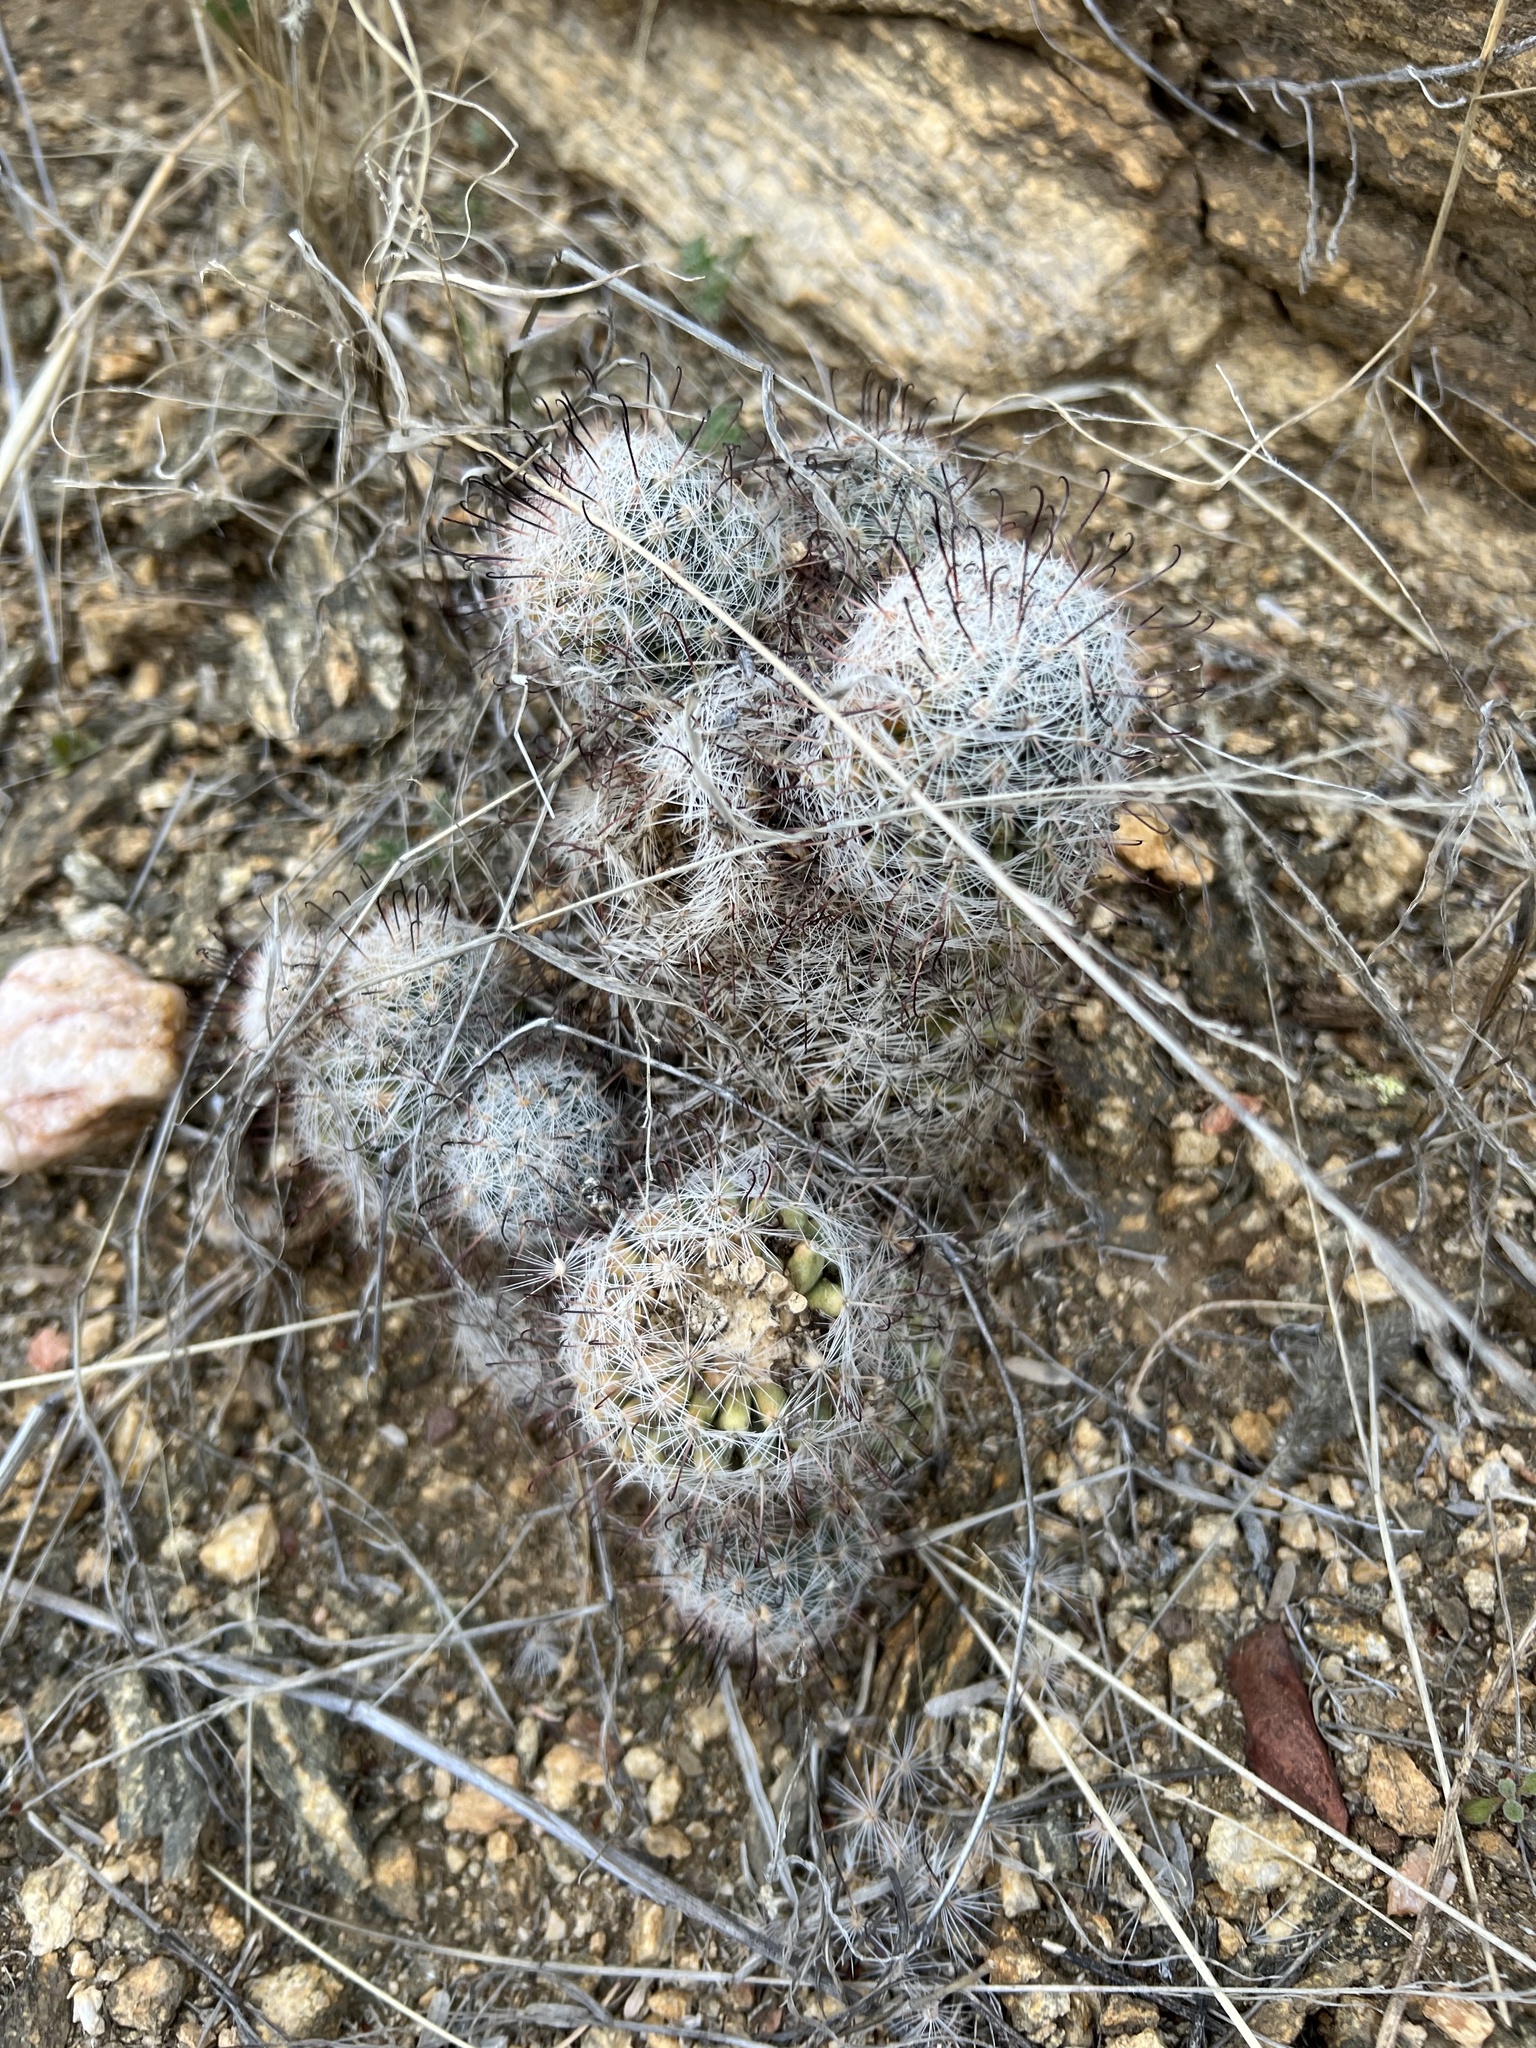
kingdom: Plantae
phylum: Tracheophyta
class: Magnoliopsida
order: Caryophyllales
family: Cactaceae
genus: Cochemiea
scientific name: Cochemiea grahamii
